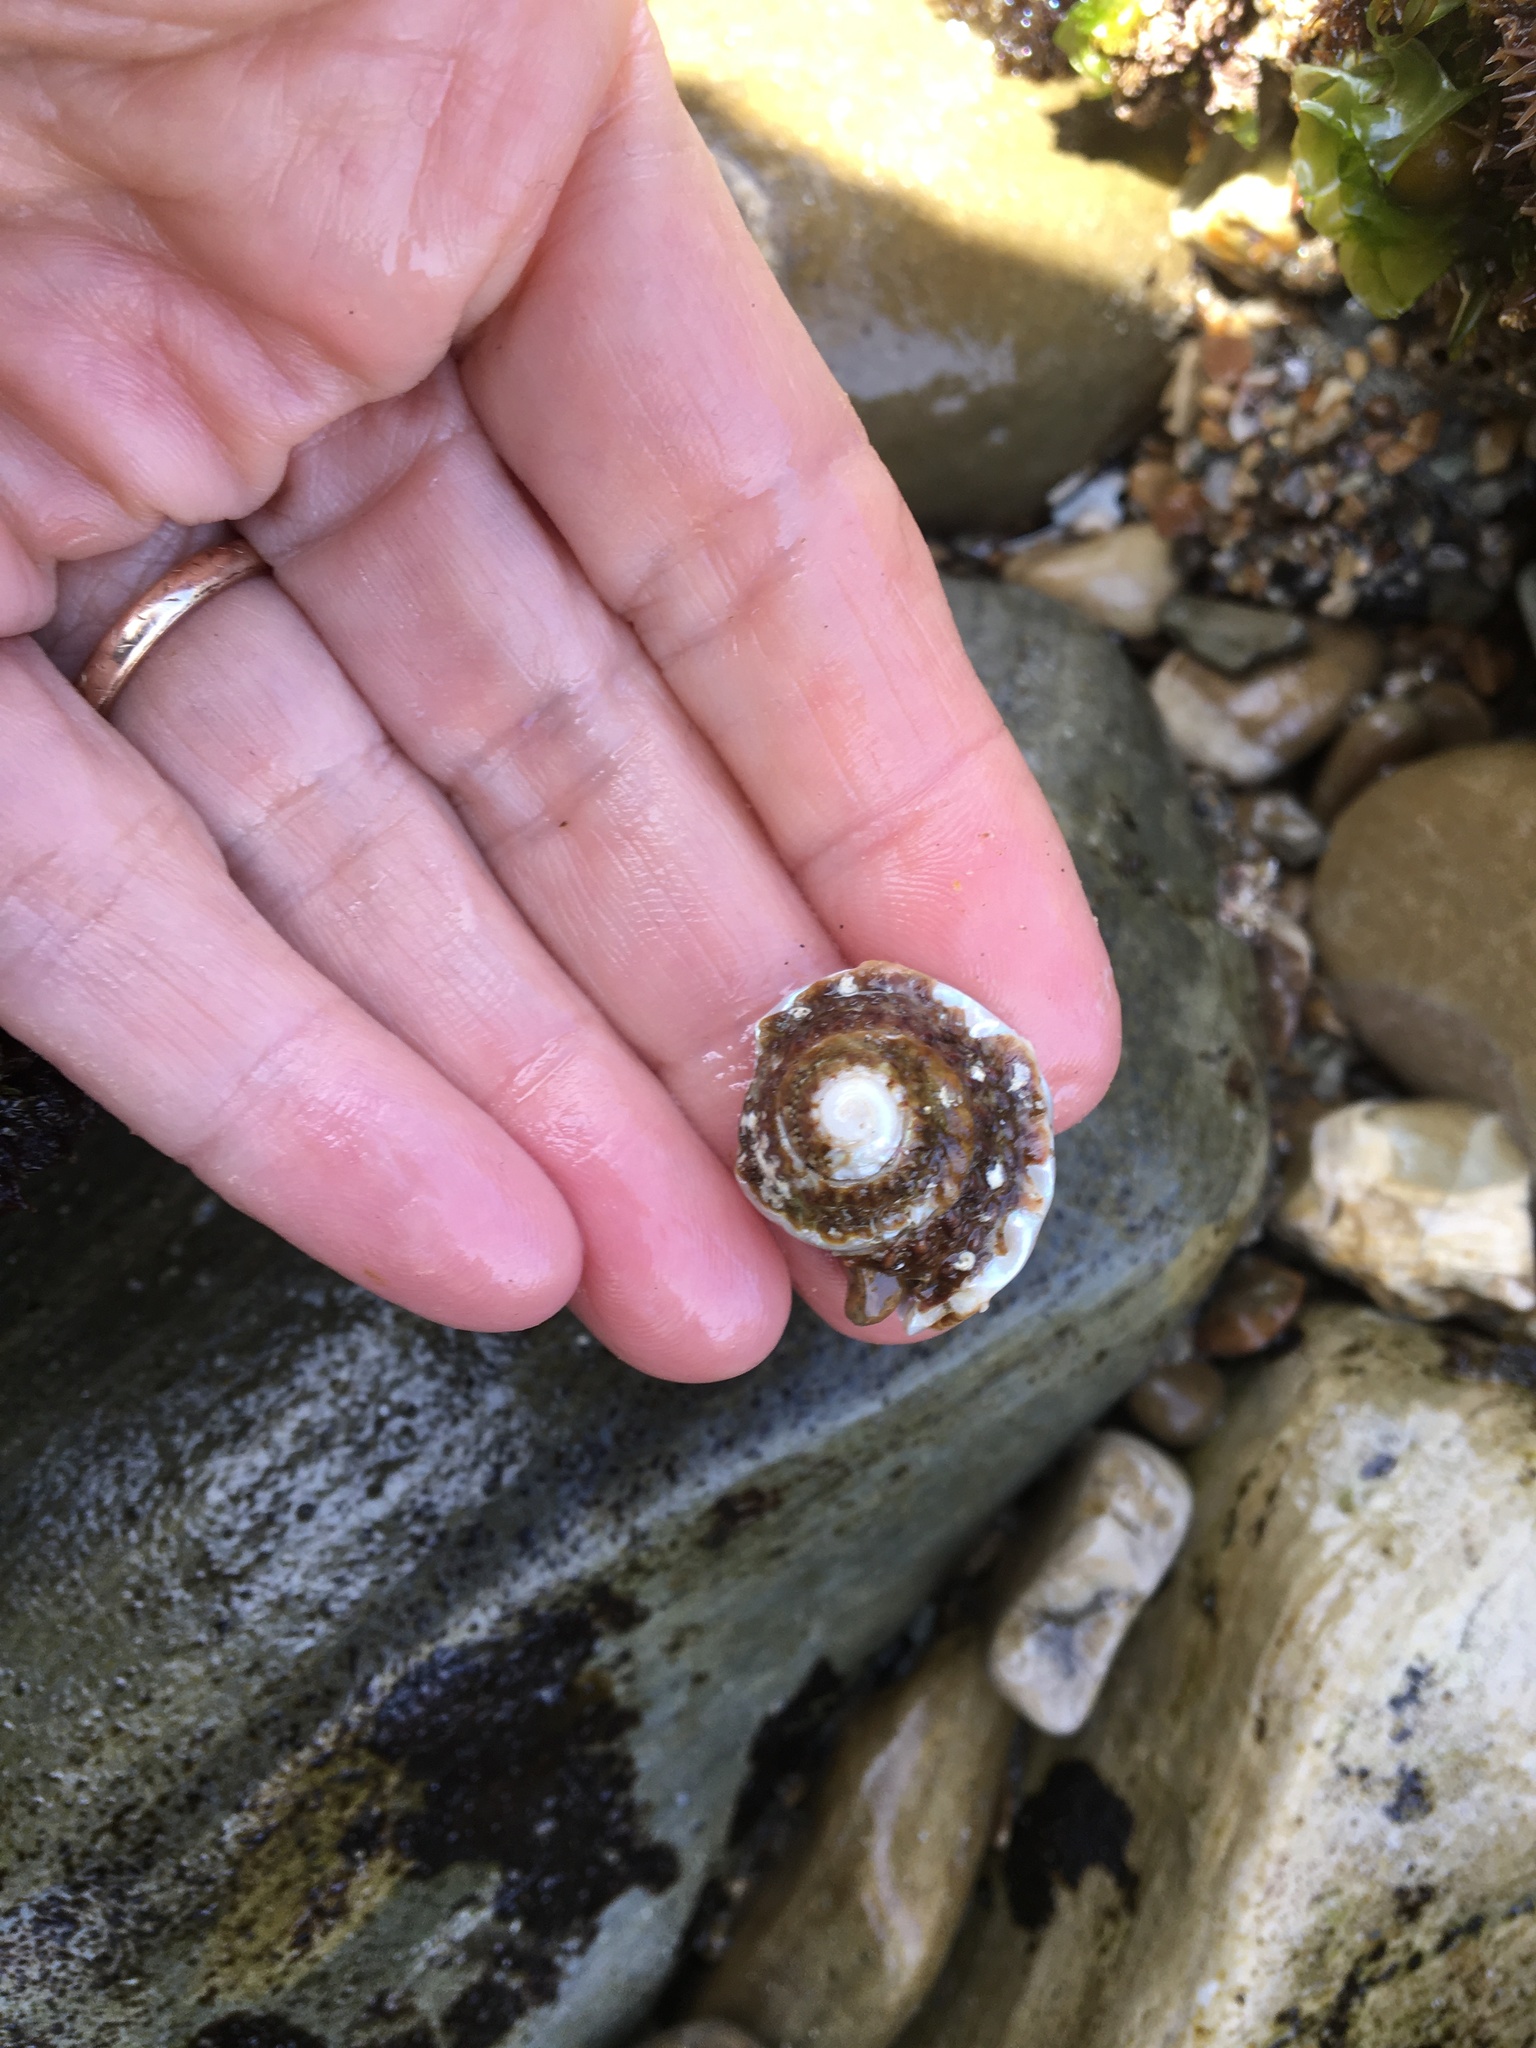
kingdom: Animalia
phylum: Mollusca
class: Gastropoda
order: Trochida
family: Turbinidae
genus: Megastraea
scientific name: Megastraea undosa
